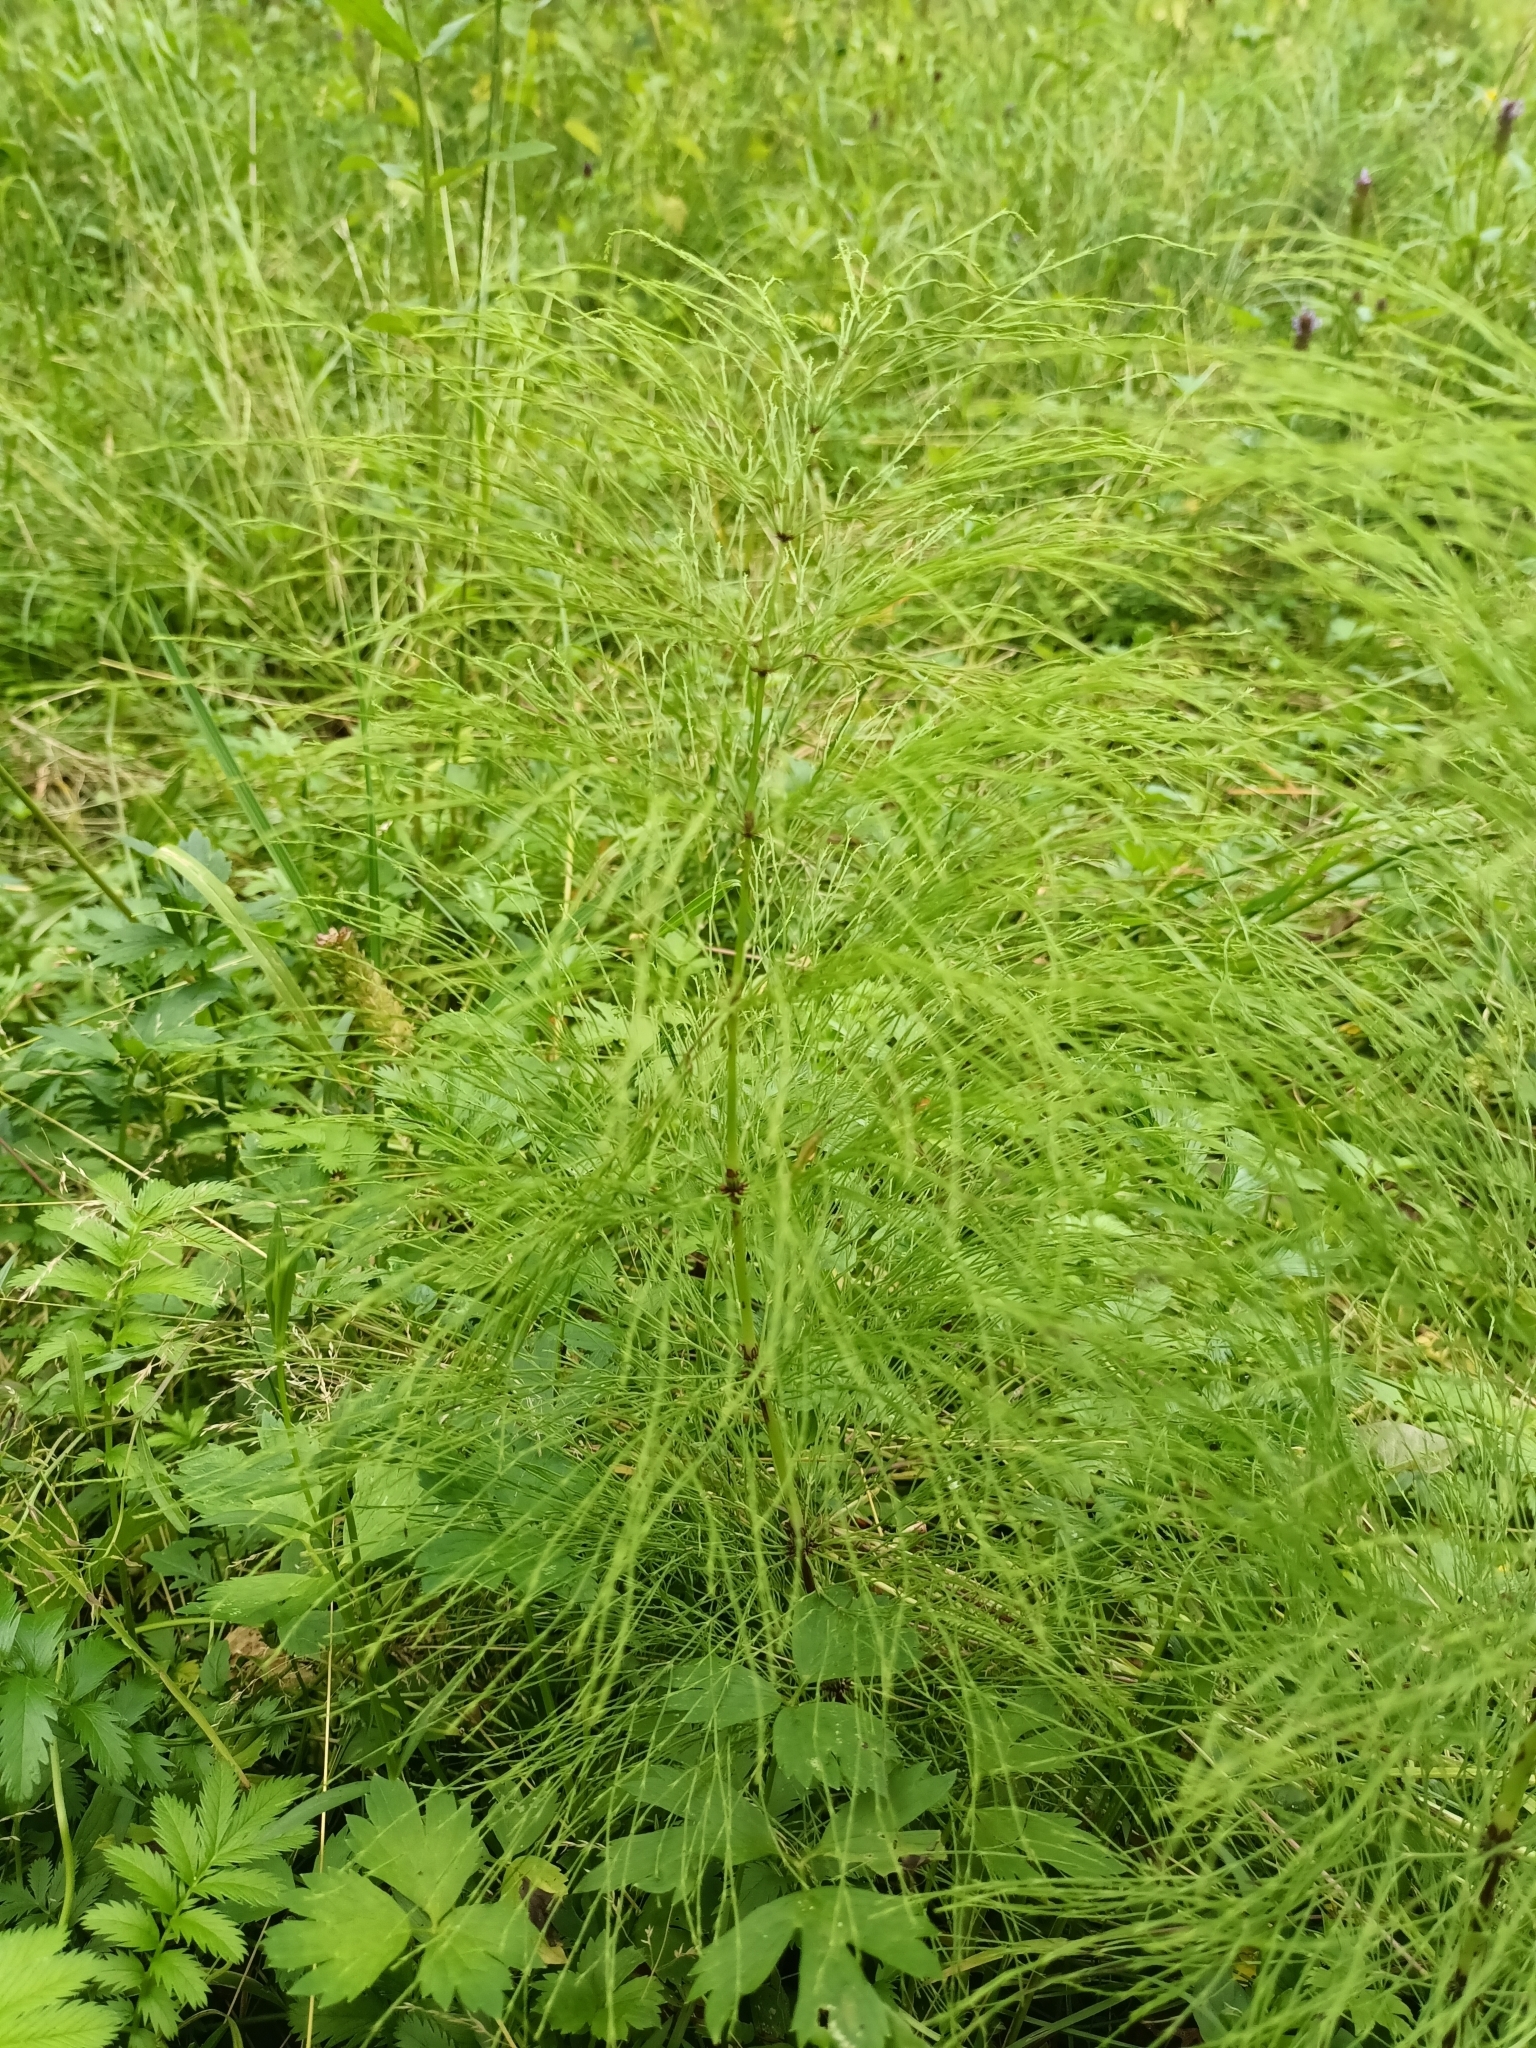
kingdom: Plantae
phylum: Tracheophyta
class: Polypodiopsida
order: Equisetales
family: Equisetaceae
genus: Equisetum
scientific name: Equisetum sylvaticum
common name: Wood horsetail
